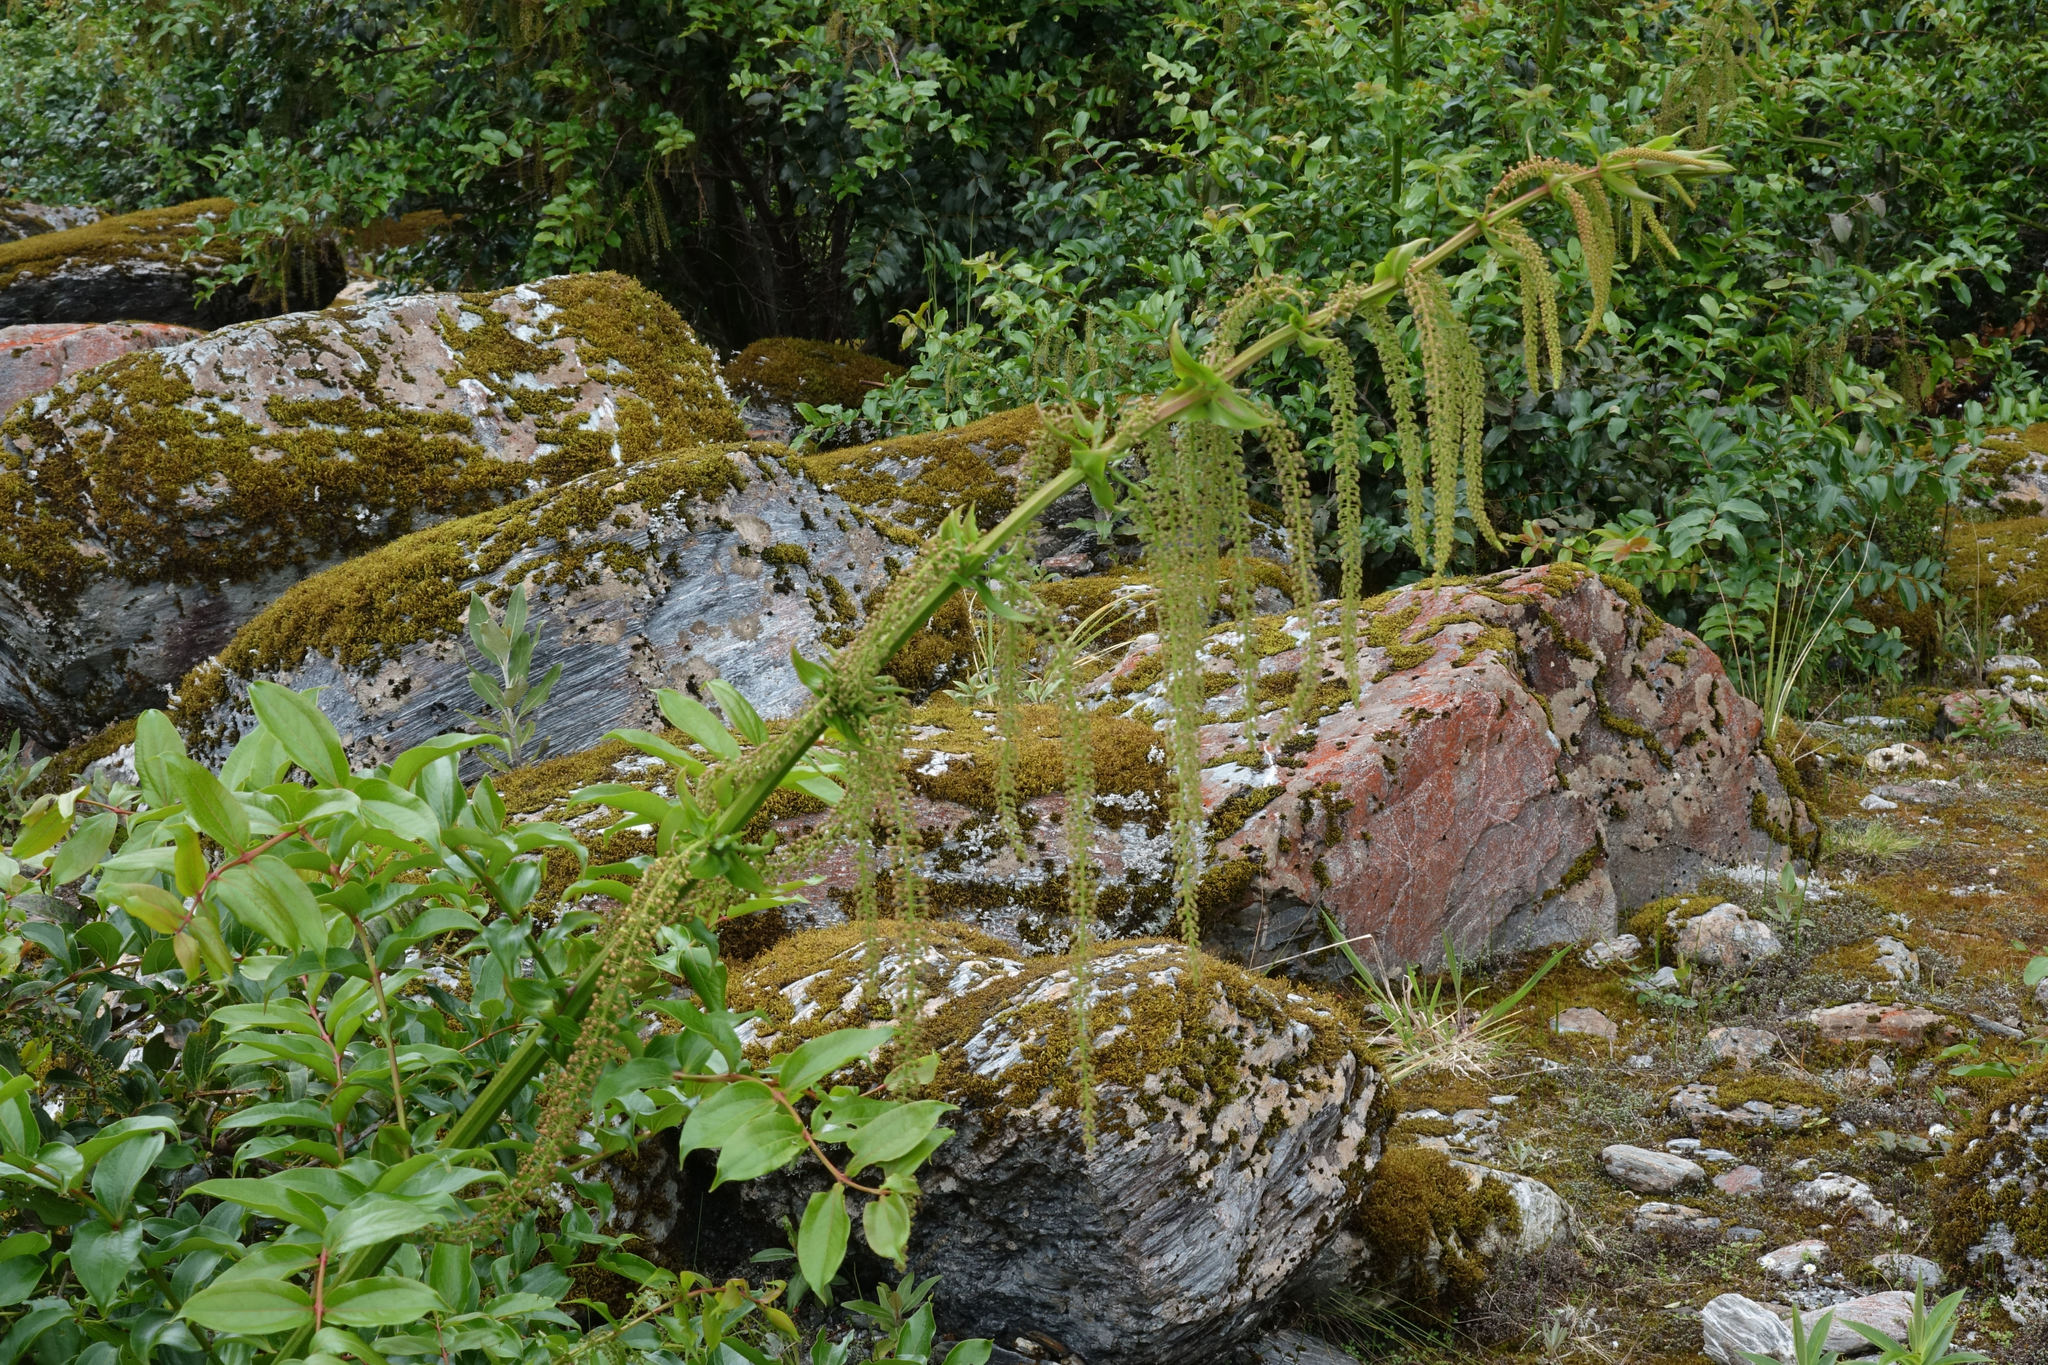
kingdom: Plantae
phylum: Tracheophyta
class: Magnoliopsida
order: Cucurbitales
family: Coriariaceae
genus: Coriaria
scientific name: Coriaria arborea
